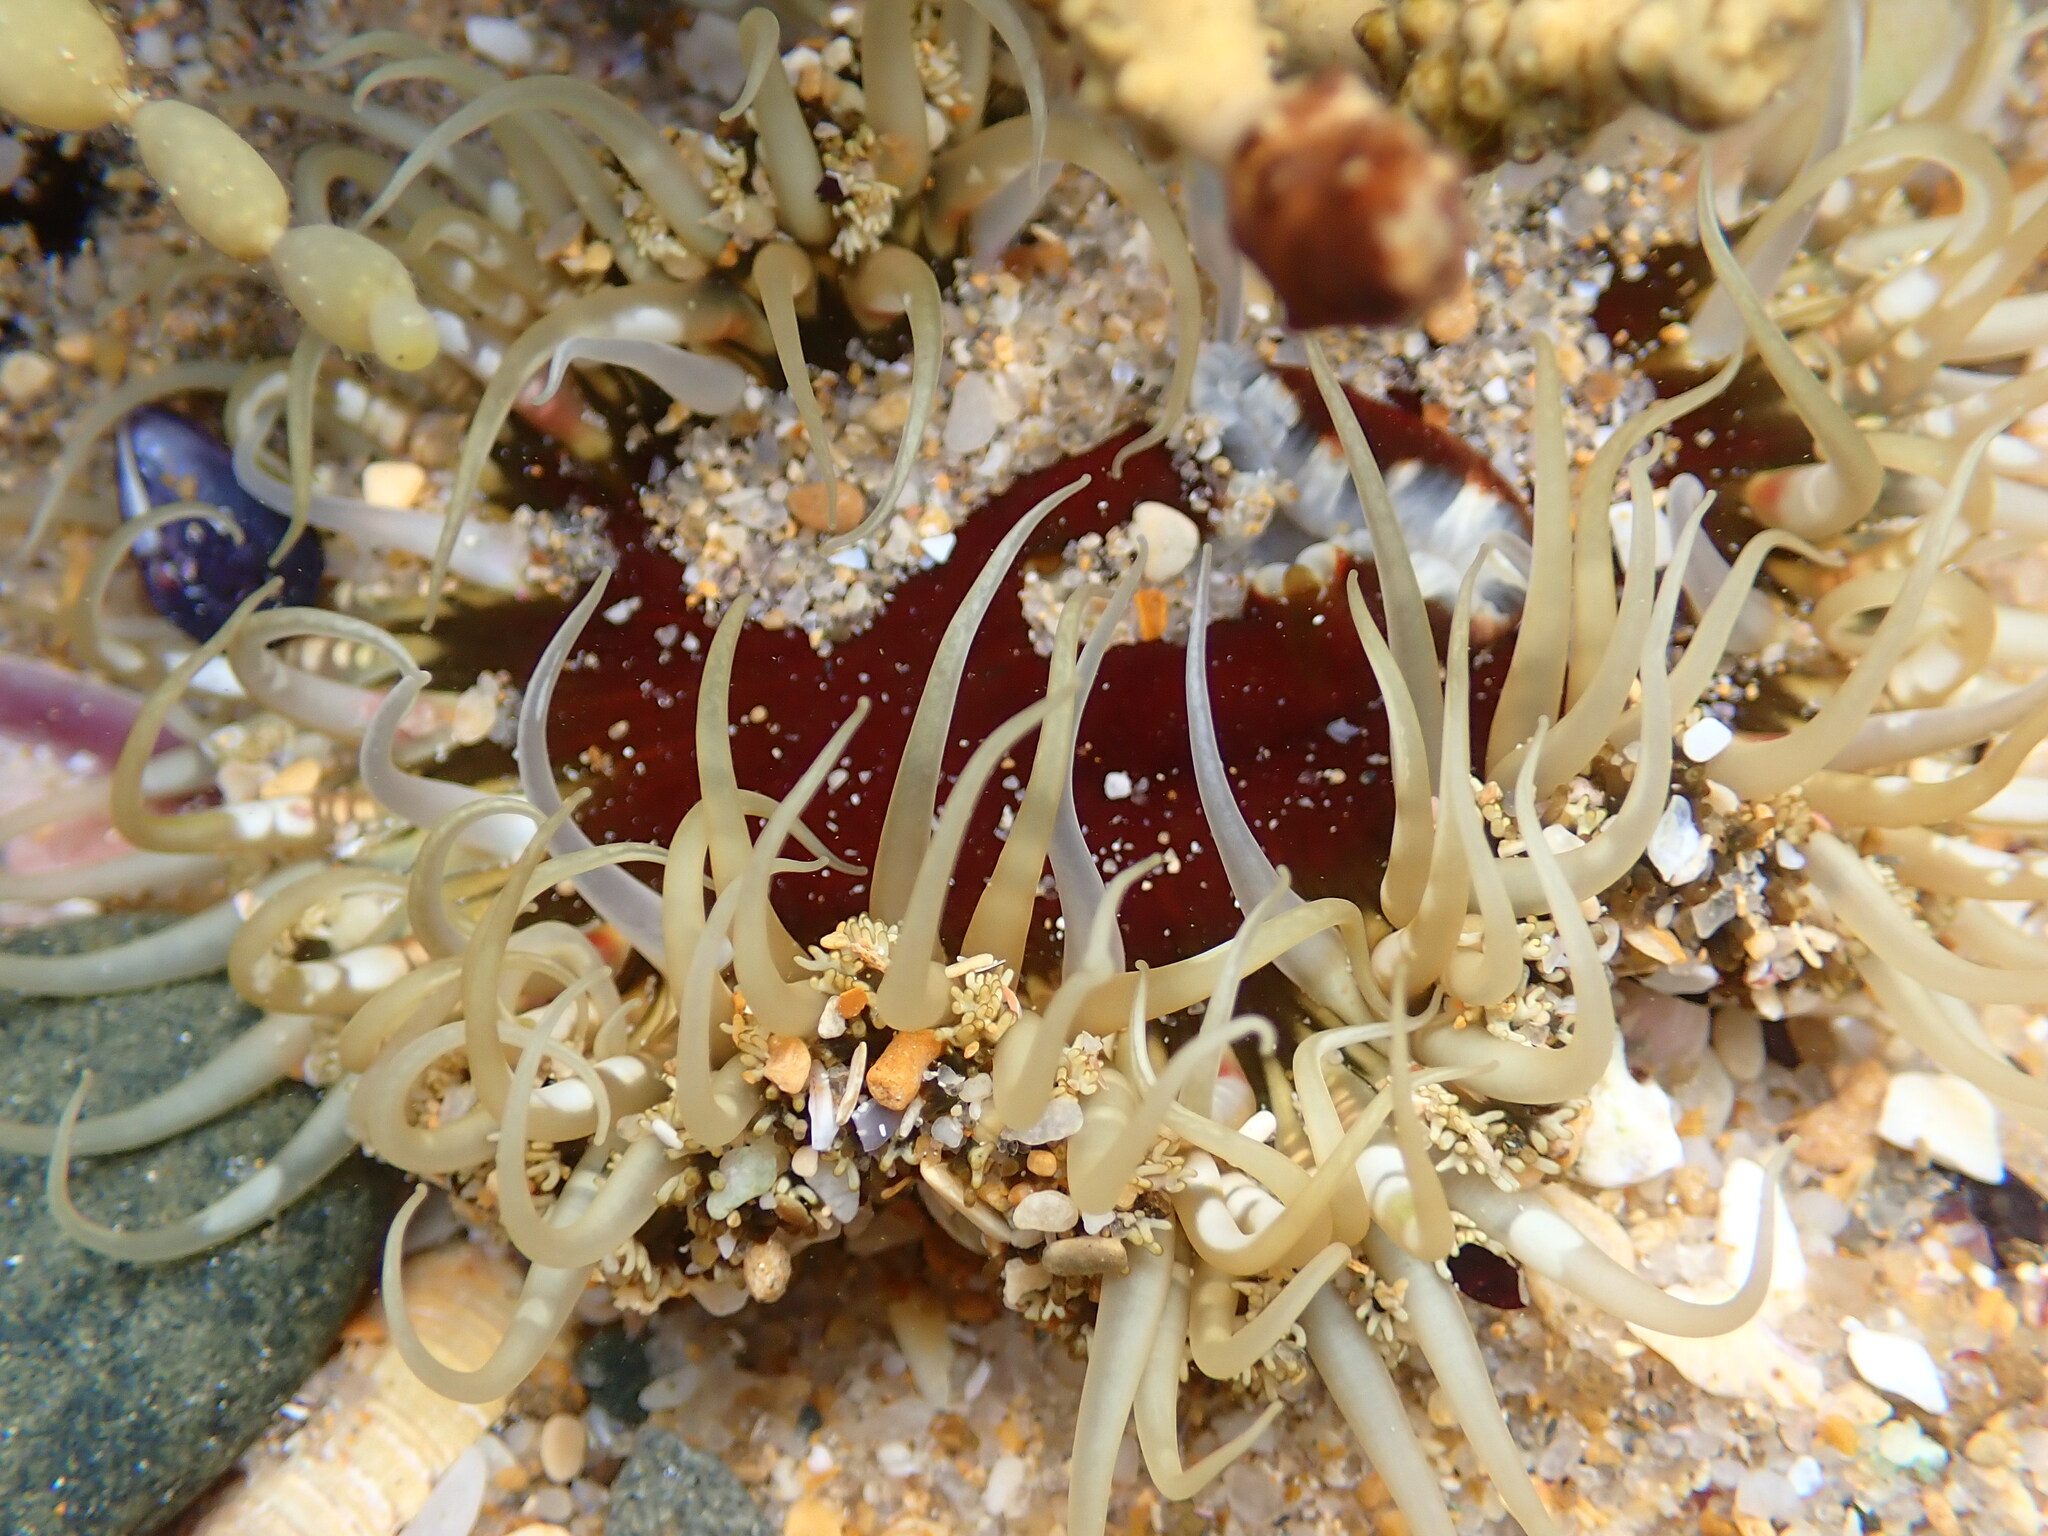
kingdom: Animalia
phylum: Cnidaria
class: Anthozoa
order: Actiniaria
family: Actiniidae
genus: Oulactis
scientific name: Oulactis muscosa
